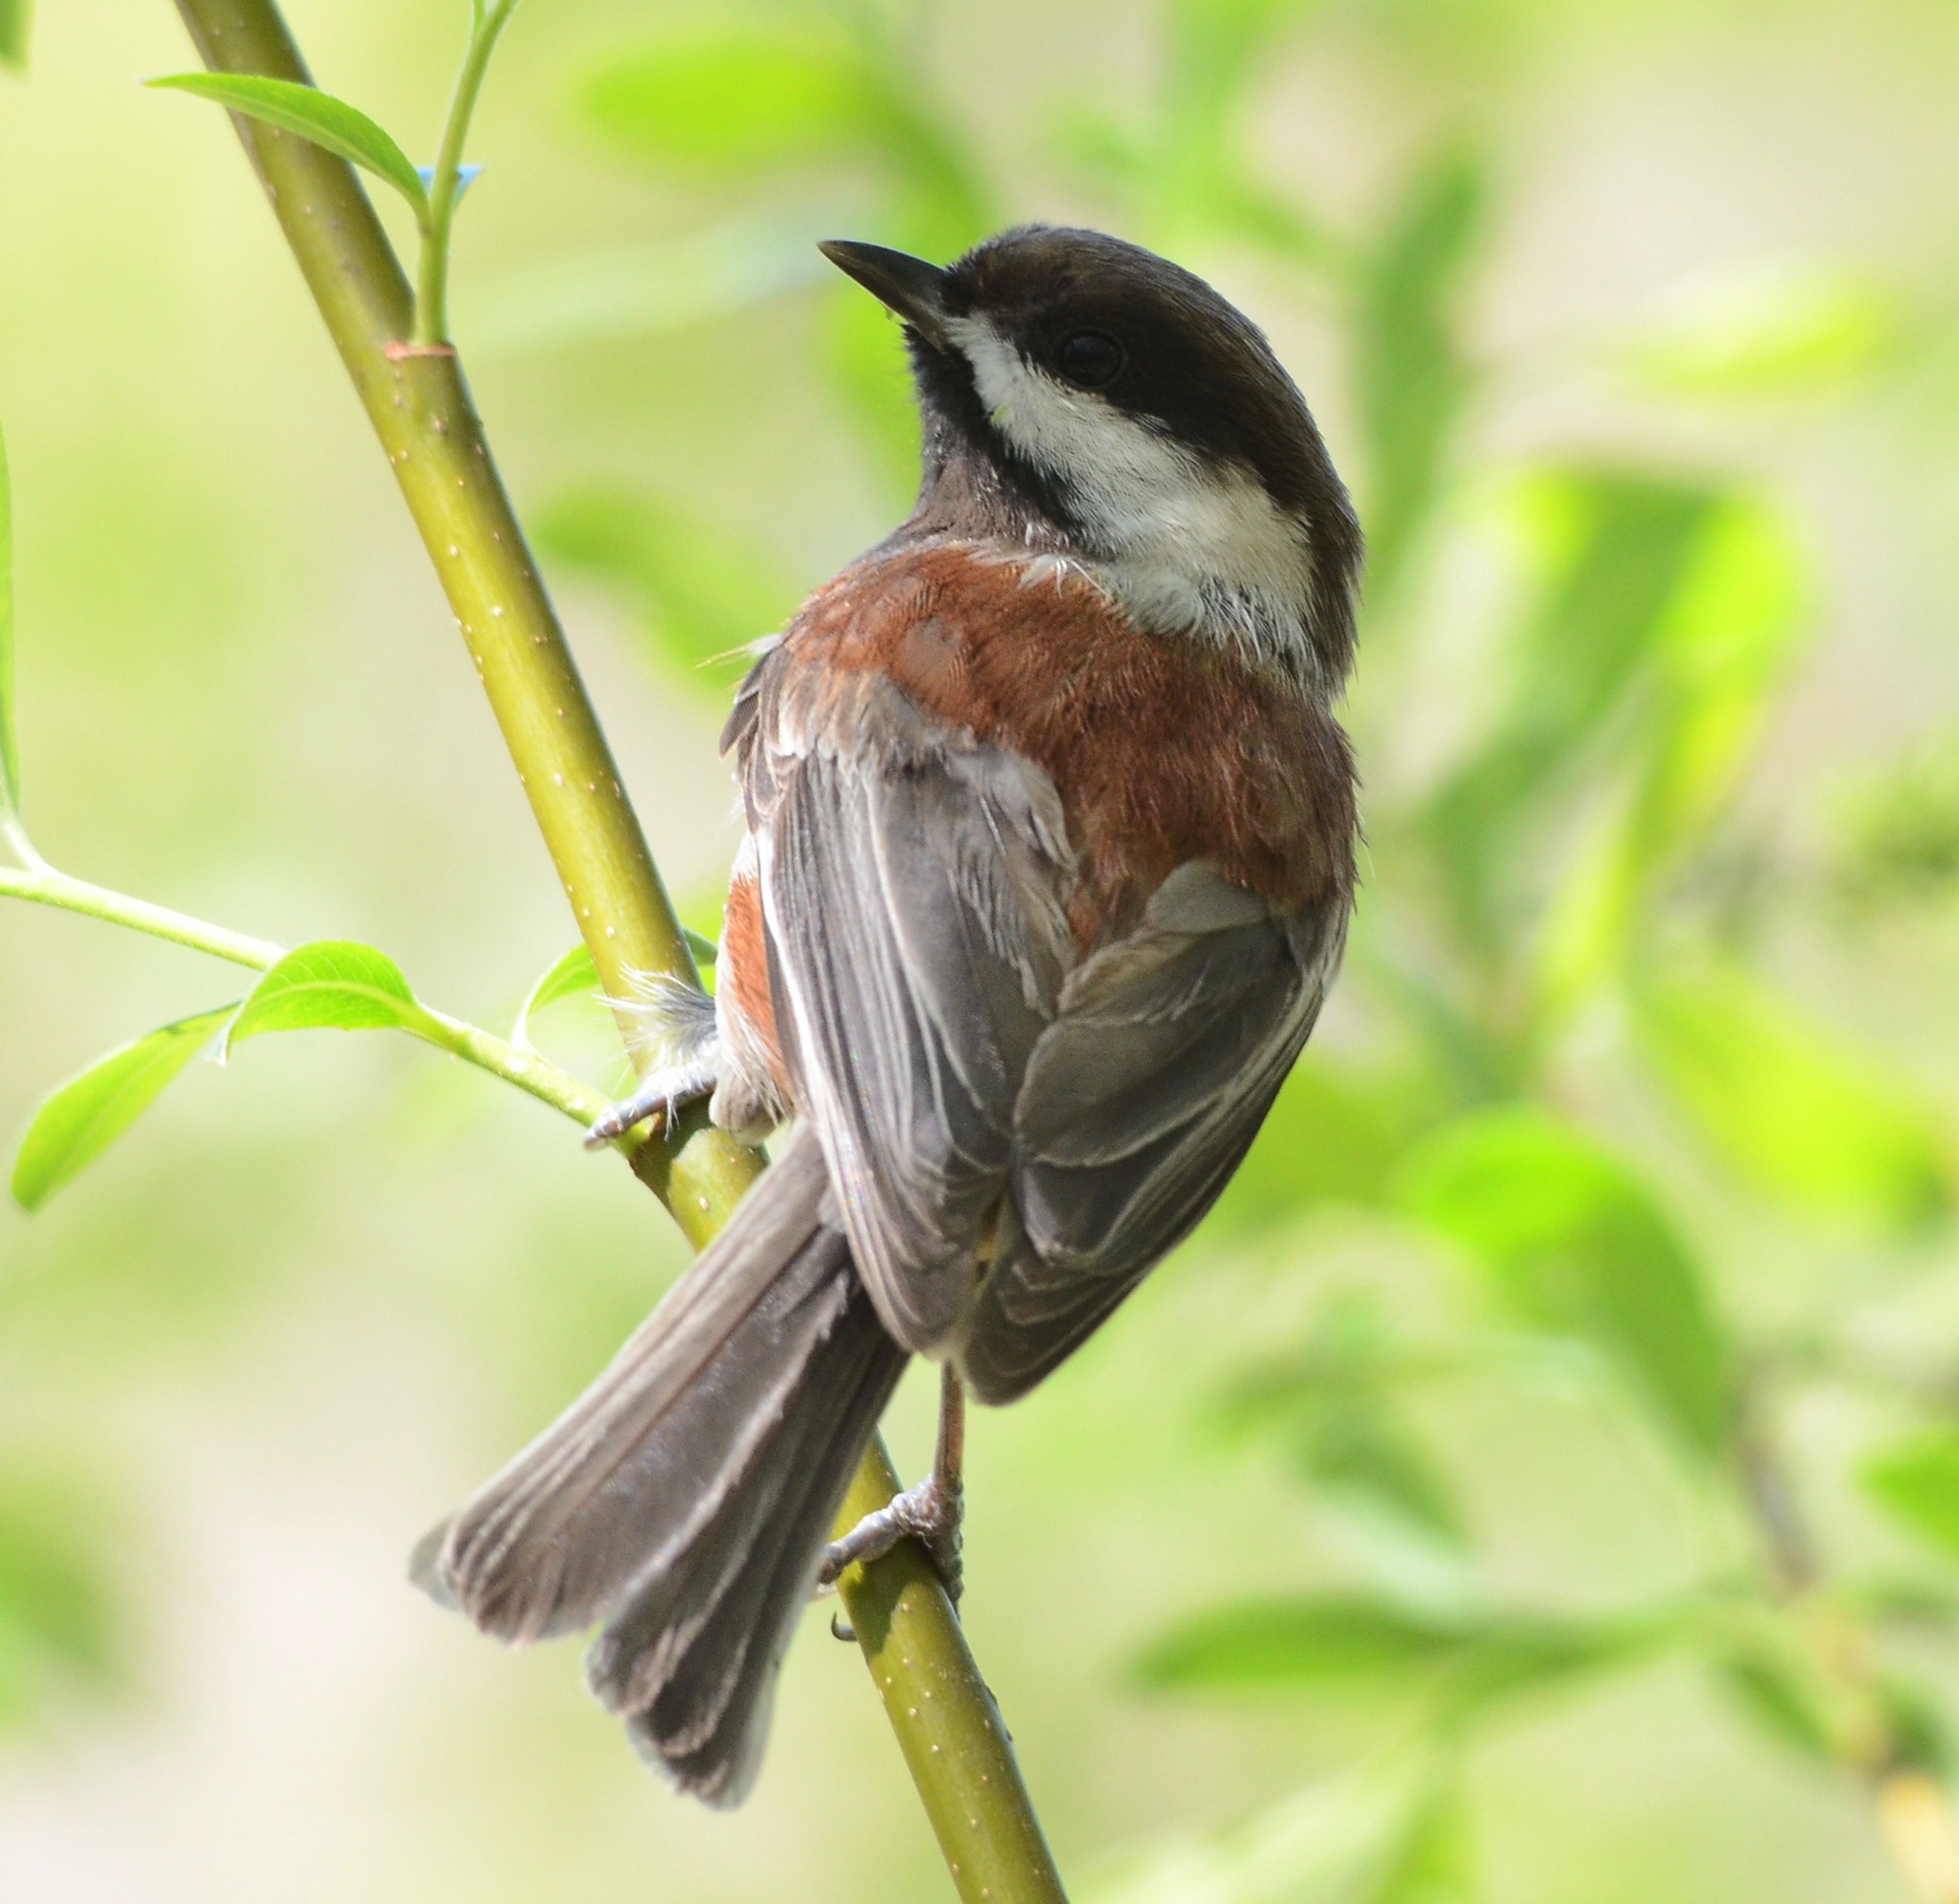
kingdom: Animalia
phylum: Chordata
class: Aves
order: Passeriformes
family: Paridae
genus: Poecile
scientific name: Poecile rufescens
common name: Chestnut-backed chickadee
